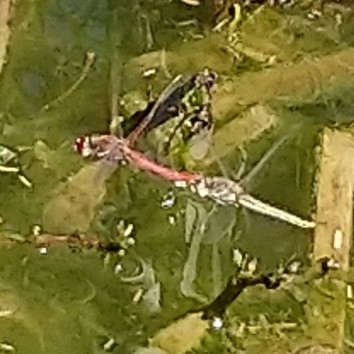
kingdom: Animalia
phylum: Arthropoda
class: Insecta
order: Odonata
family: Libellulidae
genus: Sympetrum
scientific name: Sympetrum fonscolombii
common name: Red-veined darter
